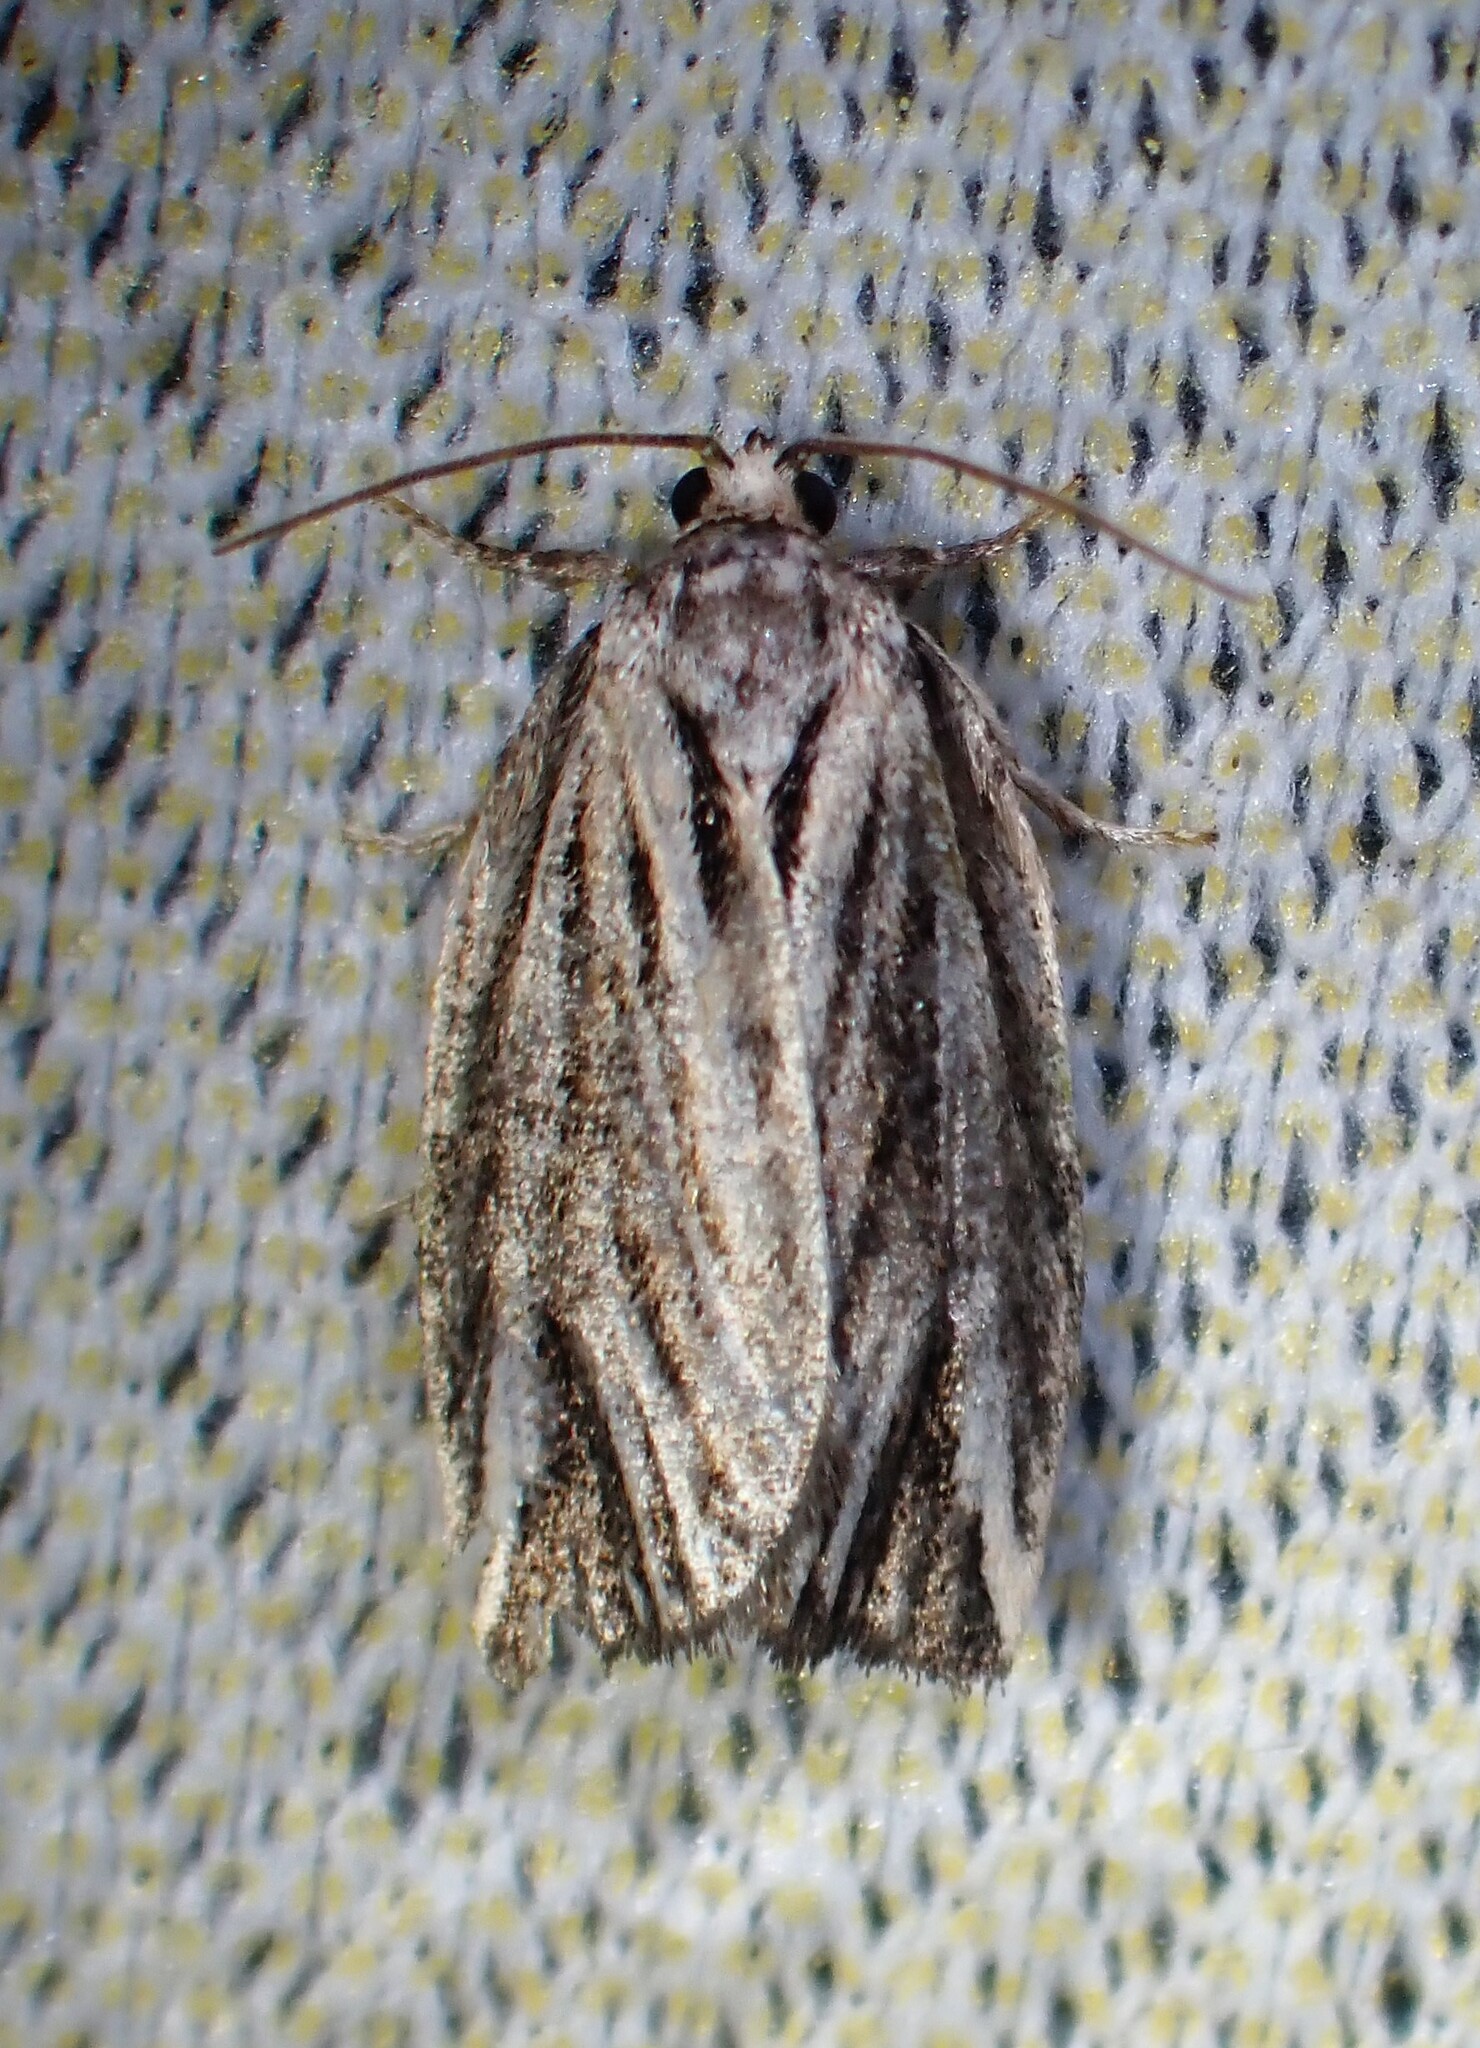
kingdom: Animalia
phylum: Arthropoda
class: Insecta
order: Lepidoptera
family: Tortricidae
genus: Archips
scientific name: Archips strianus
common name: Striated tortrix moth
